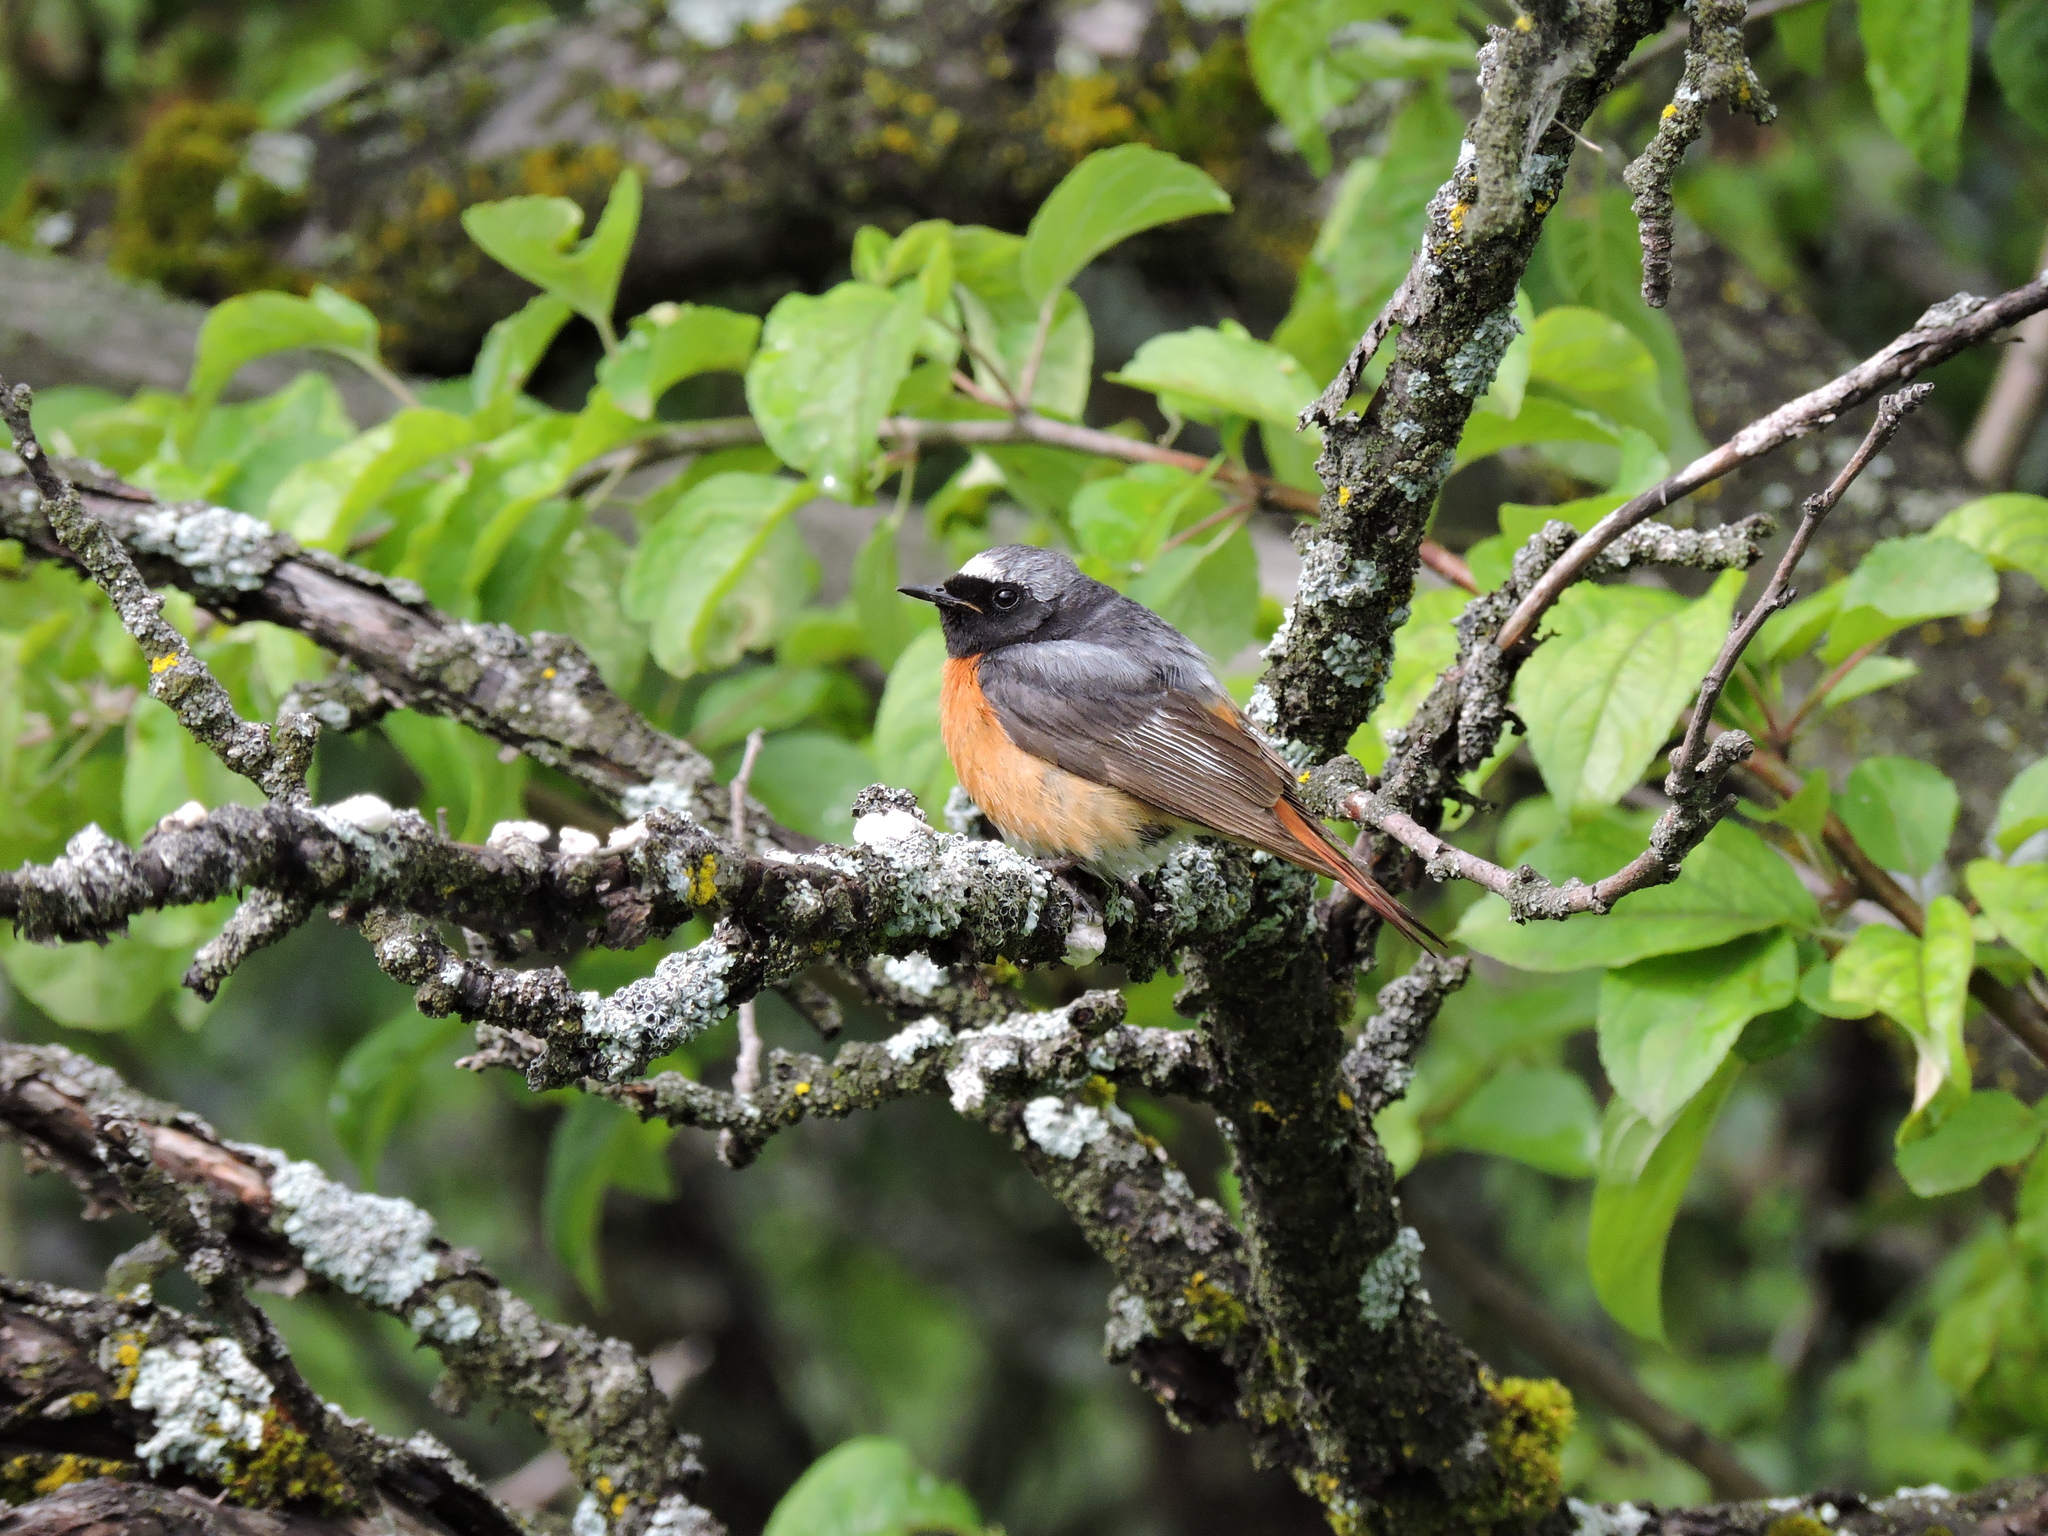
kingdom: Animalia
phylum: Chordata
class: Aves
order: Passeriformes
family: Muscicapidae
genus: Phoenicurus
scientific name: Phoenicurus phoenicurus
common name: Common redstart
